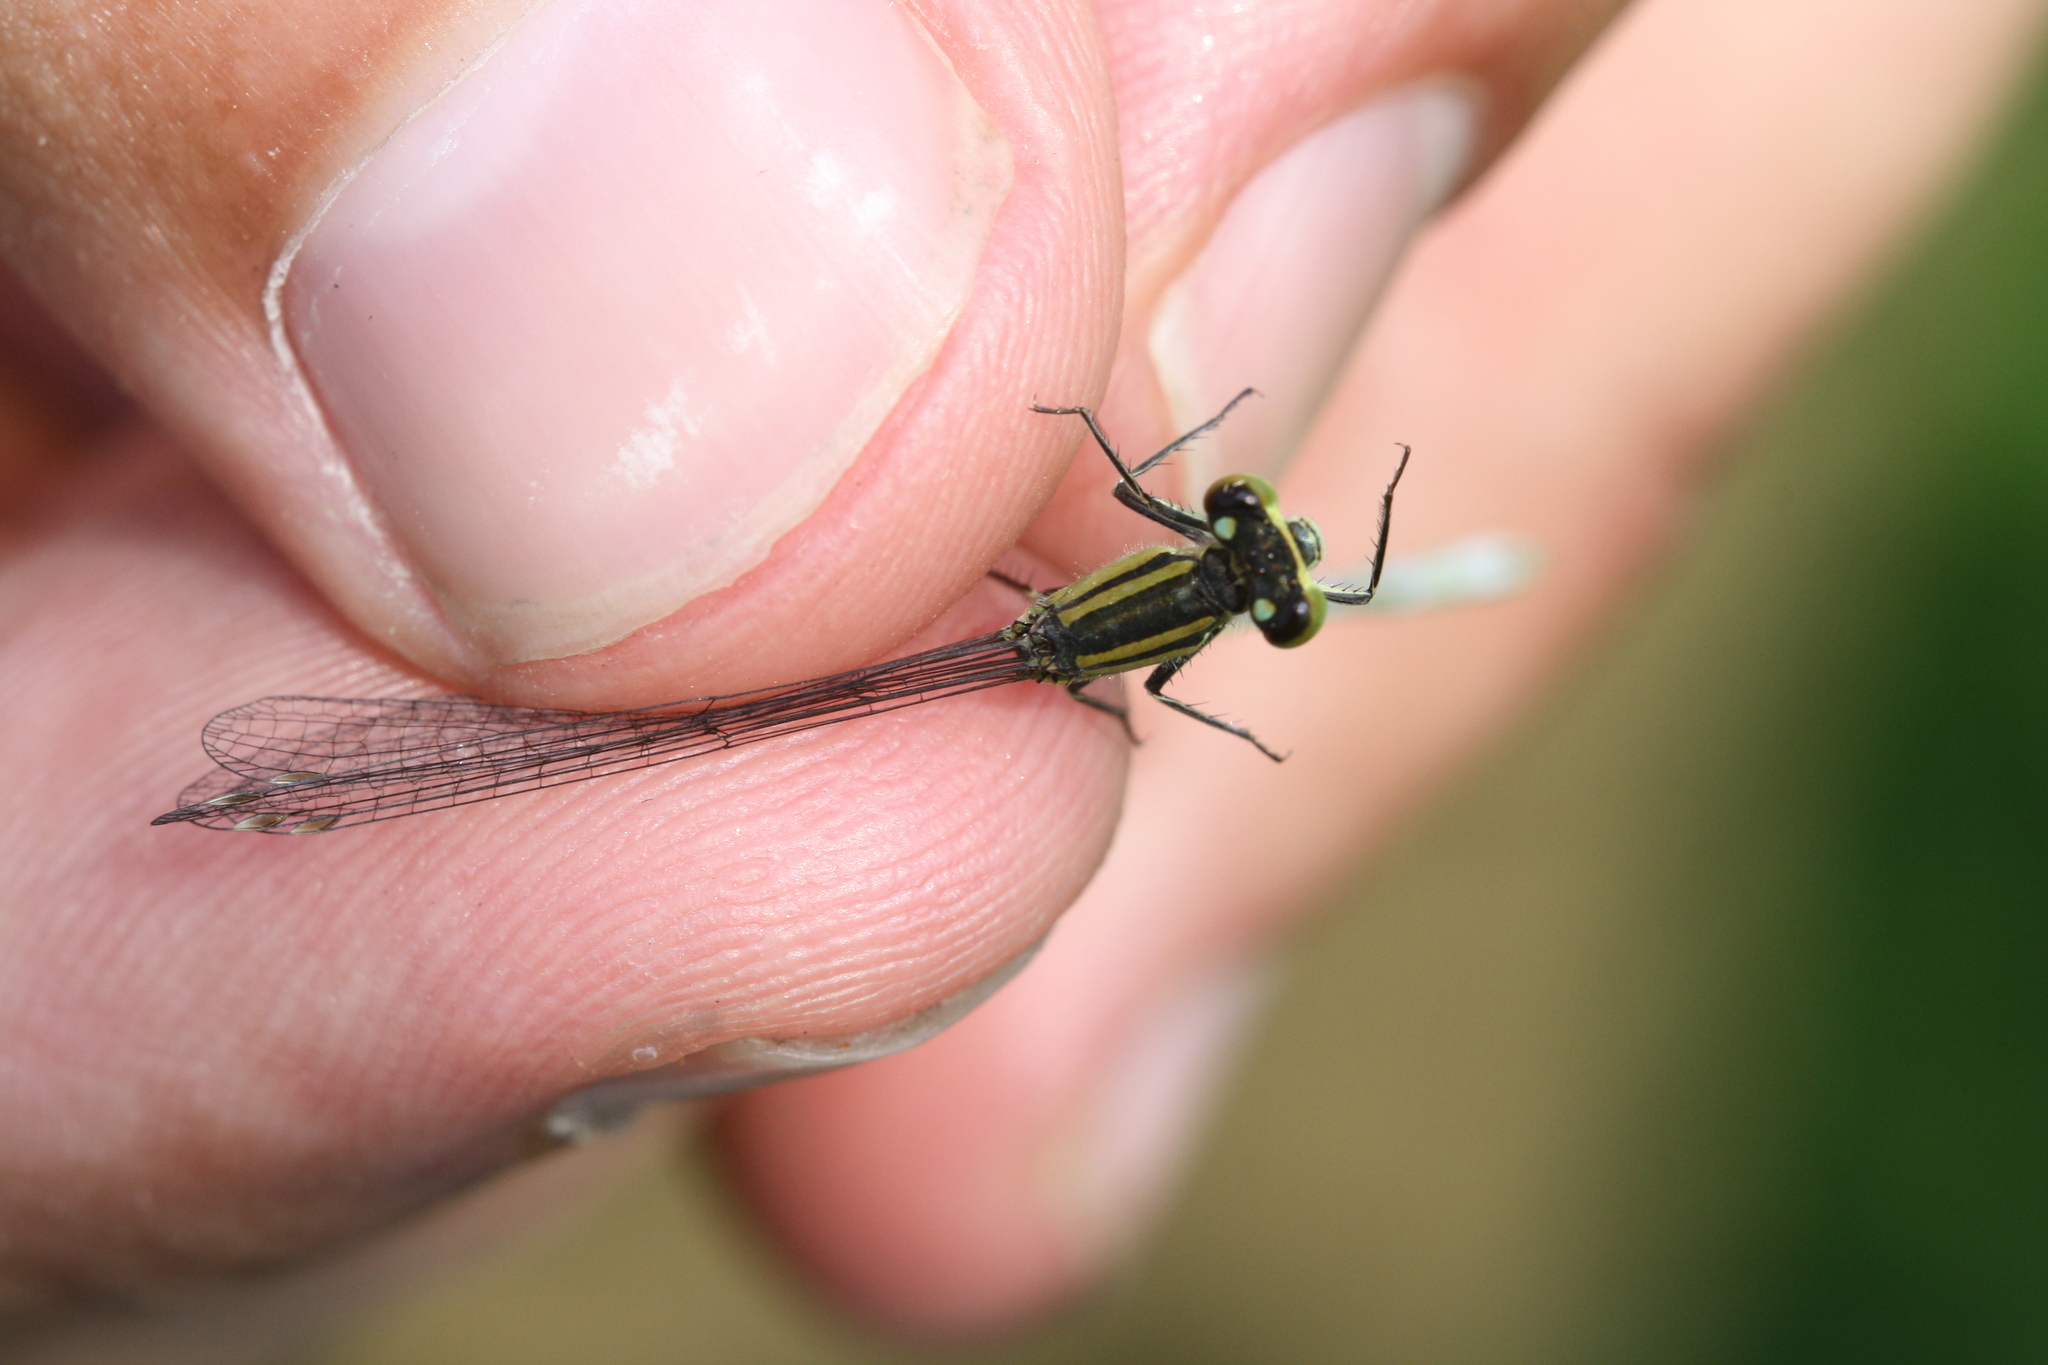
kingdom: Animalia
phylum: Arthropoda
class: Insecta
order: Odonata
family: Coenagrionidae
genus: Ischnura
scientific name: Ischnura elegans
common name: Blue-tailed damselfly
